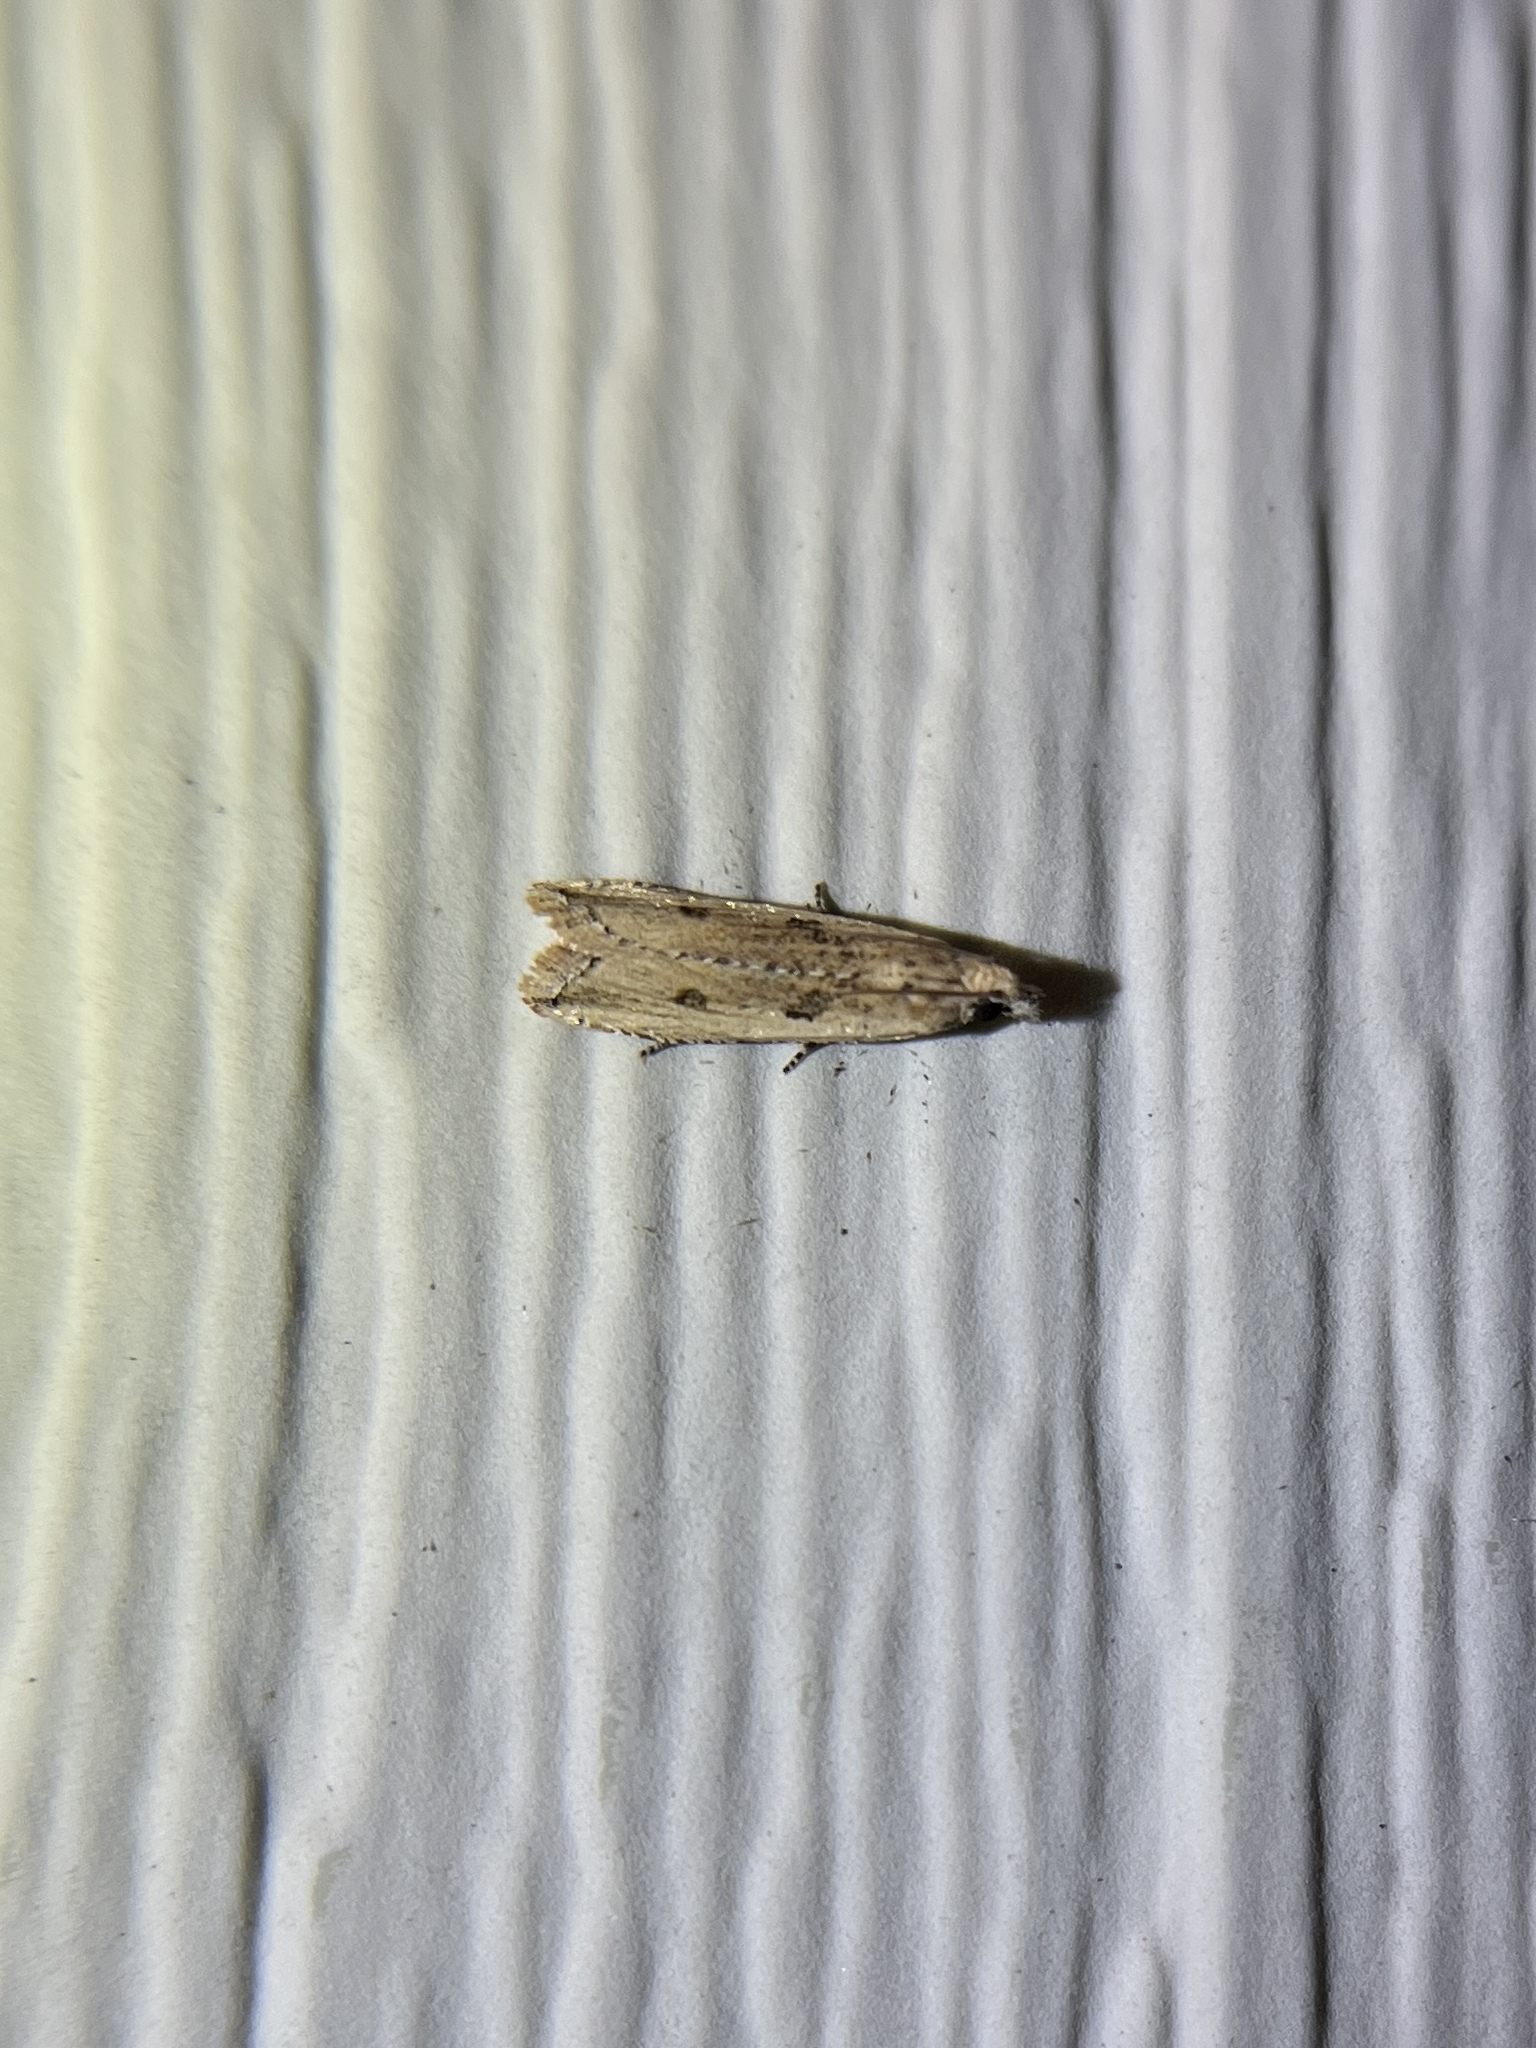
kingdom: Animalia
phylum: Arthropoda
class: Insecta
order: Lepidoptera
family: Tortricidae
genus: Bactra
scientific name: Bactra verutana
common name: Javelin moth
